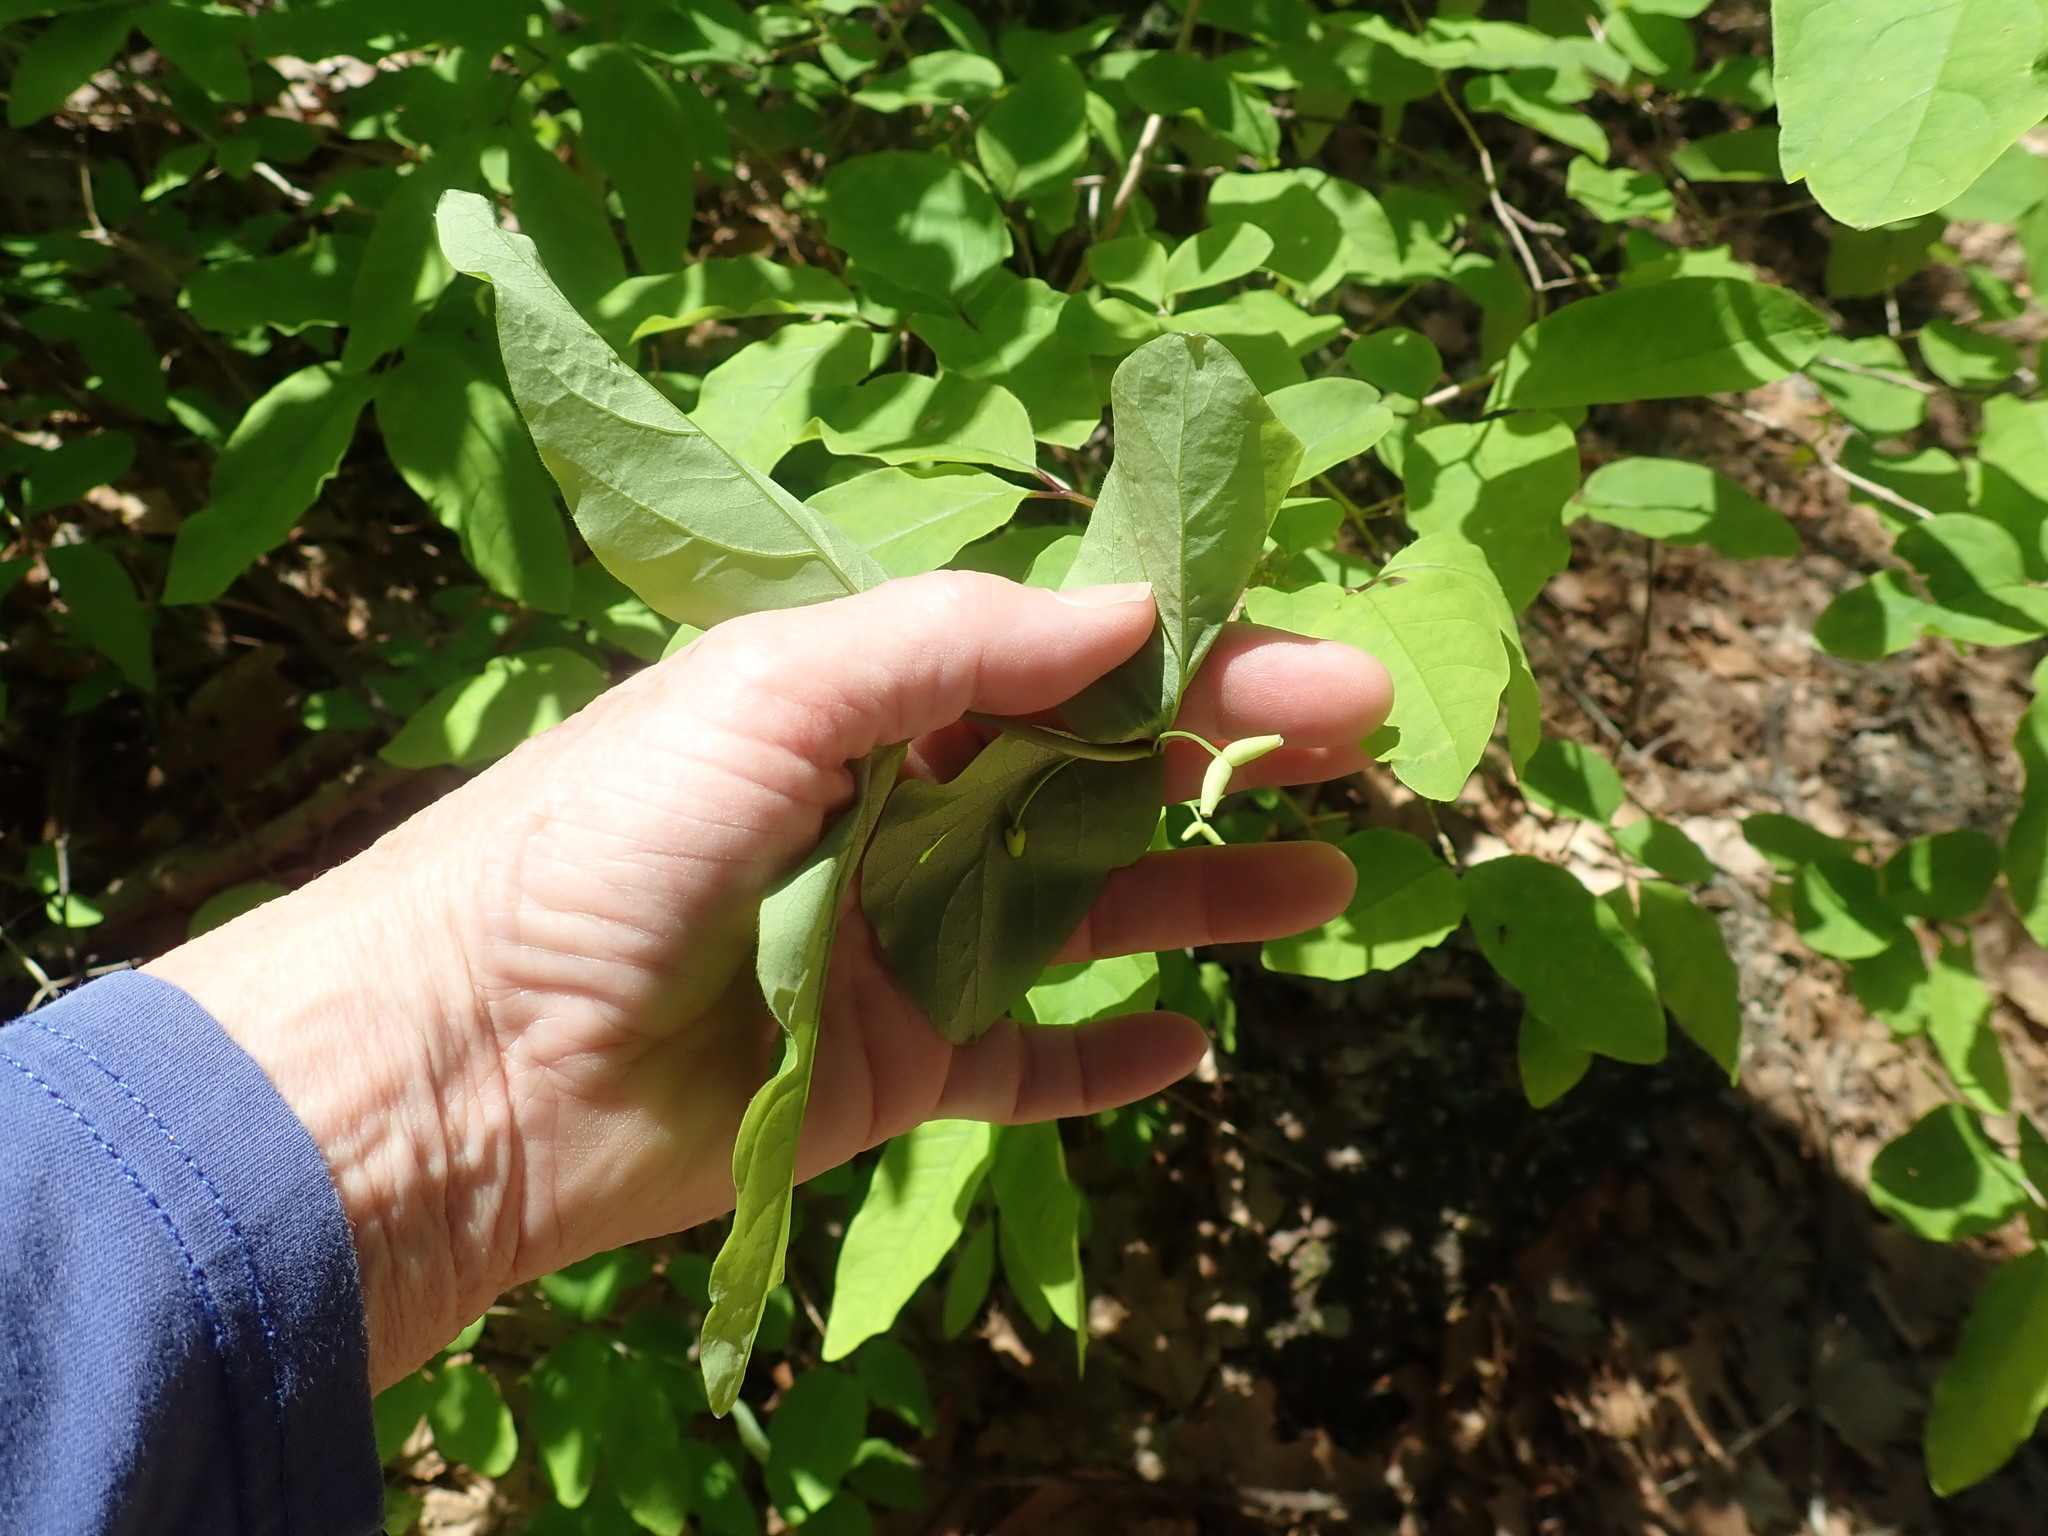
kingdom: Plantae
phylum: Tracheophyta
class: Magnoliopsida
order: Dipsacales
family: Caprifoliaceae
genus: Lonicera
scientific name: Lonicera canadensis
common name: American fly-honeysuckle
